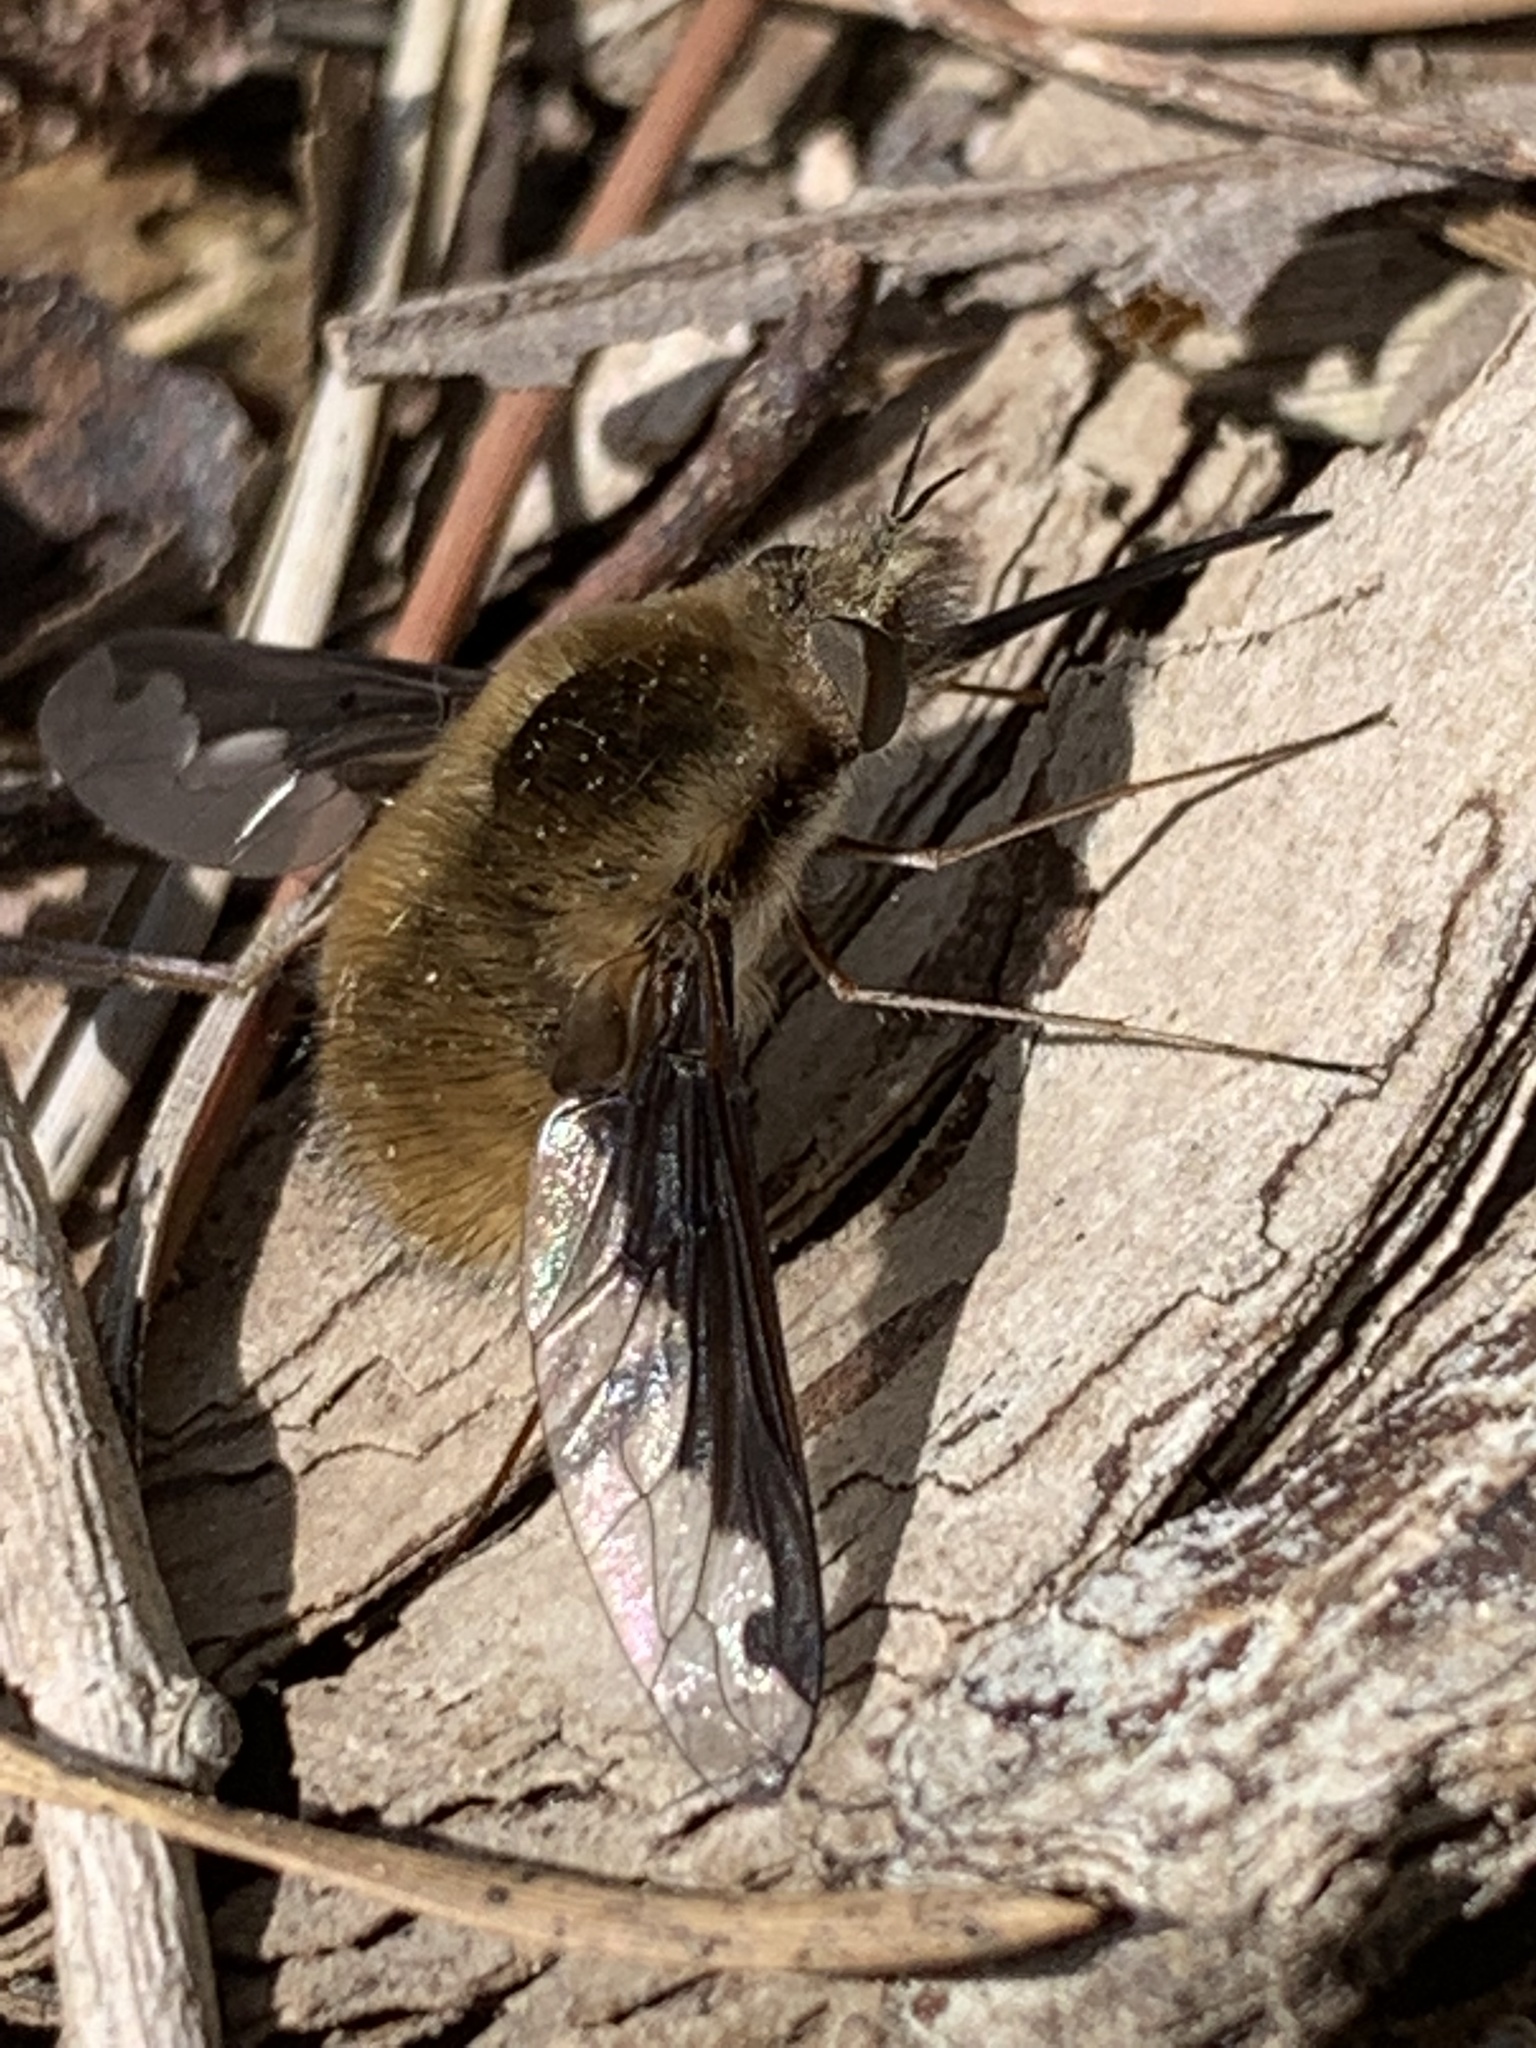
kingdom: Animalia
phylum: Arthropoda
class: Insecta
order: Diptera
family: Bombyliidae
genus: Bombylius
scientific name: Bombylius major
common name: Bee fly
